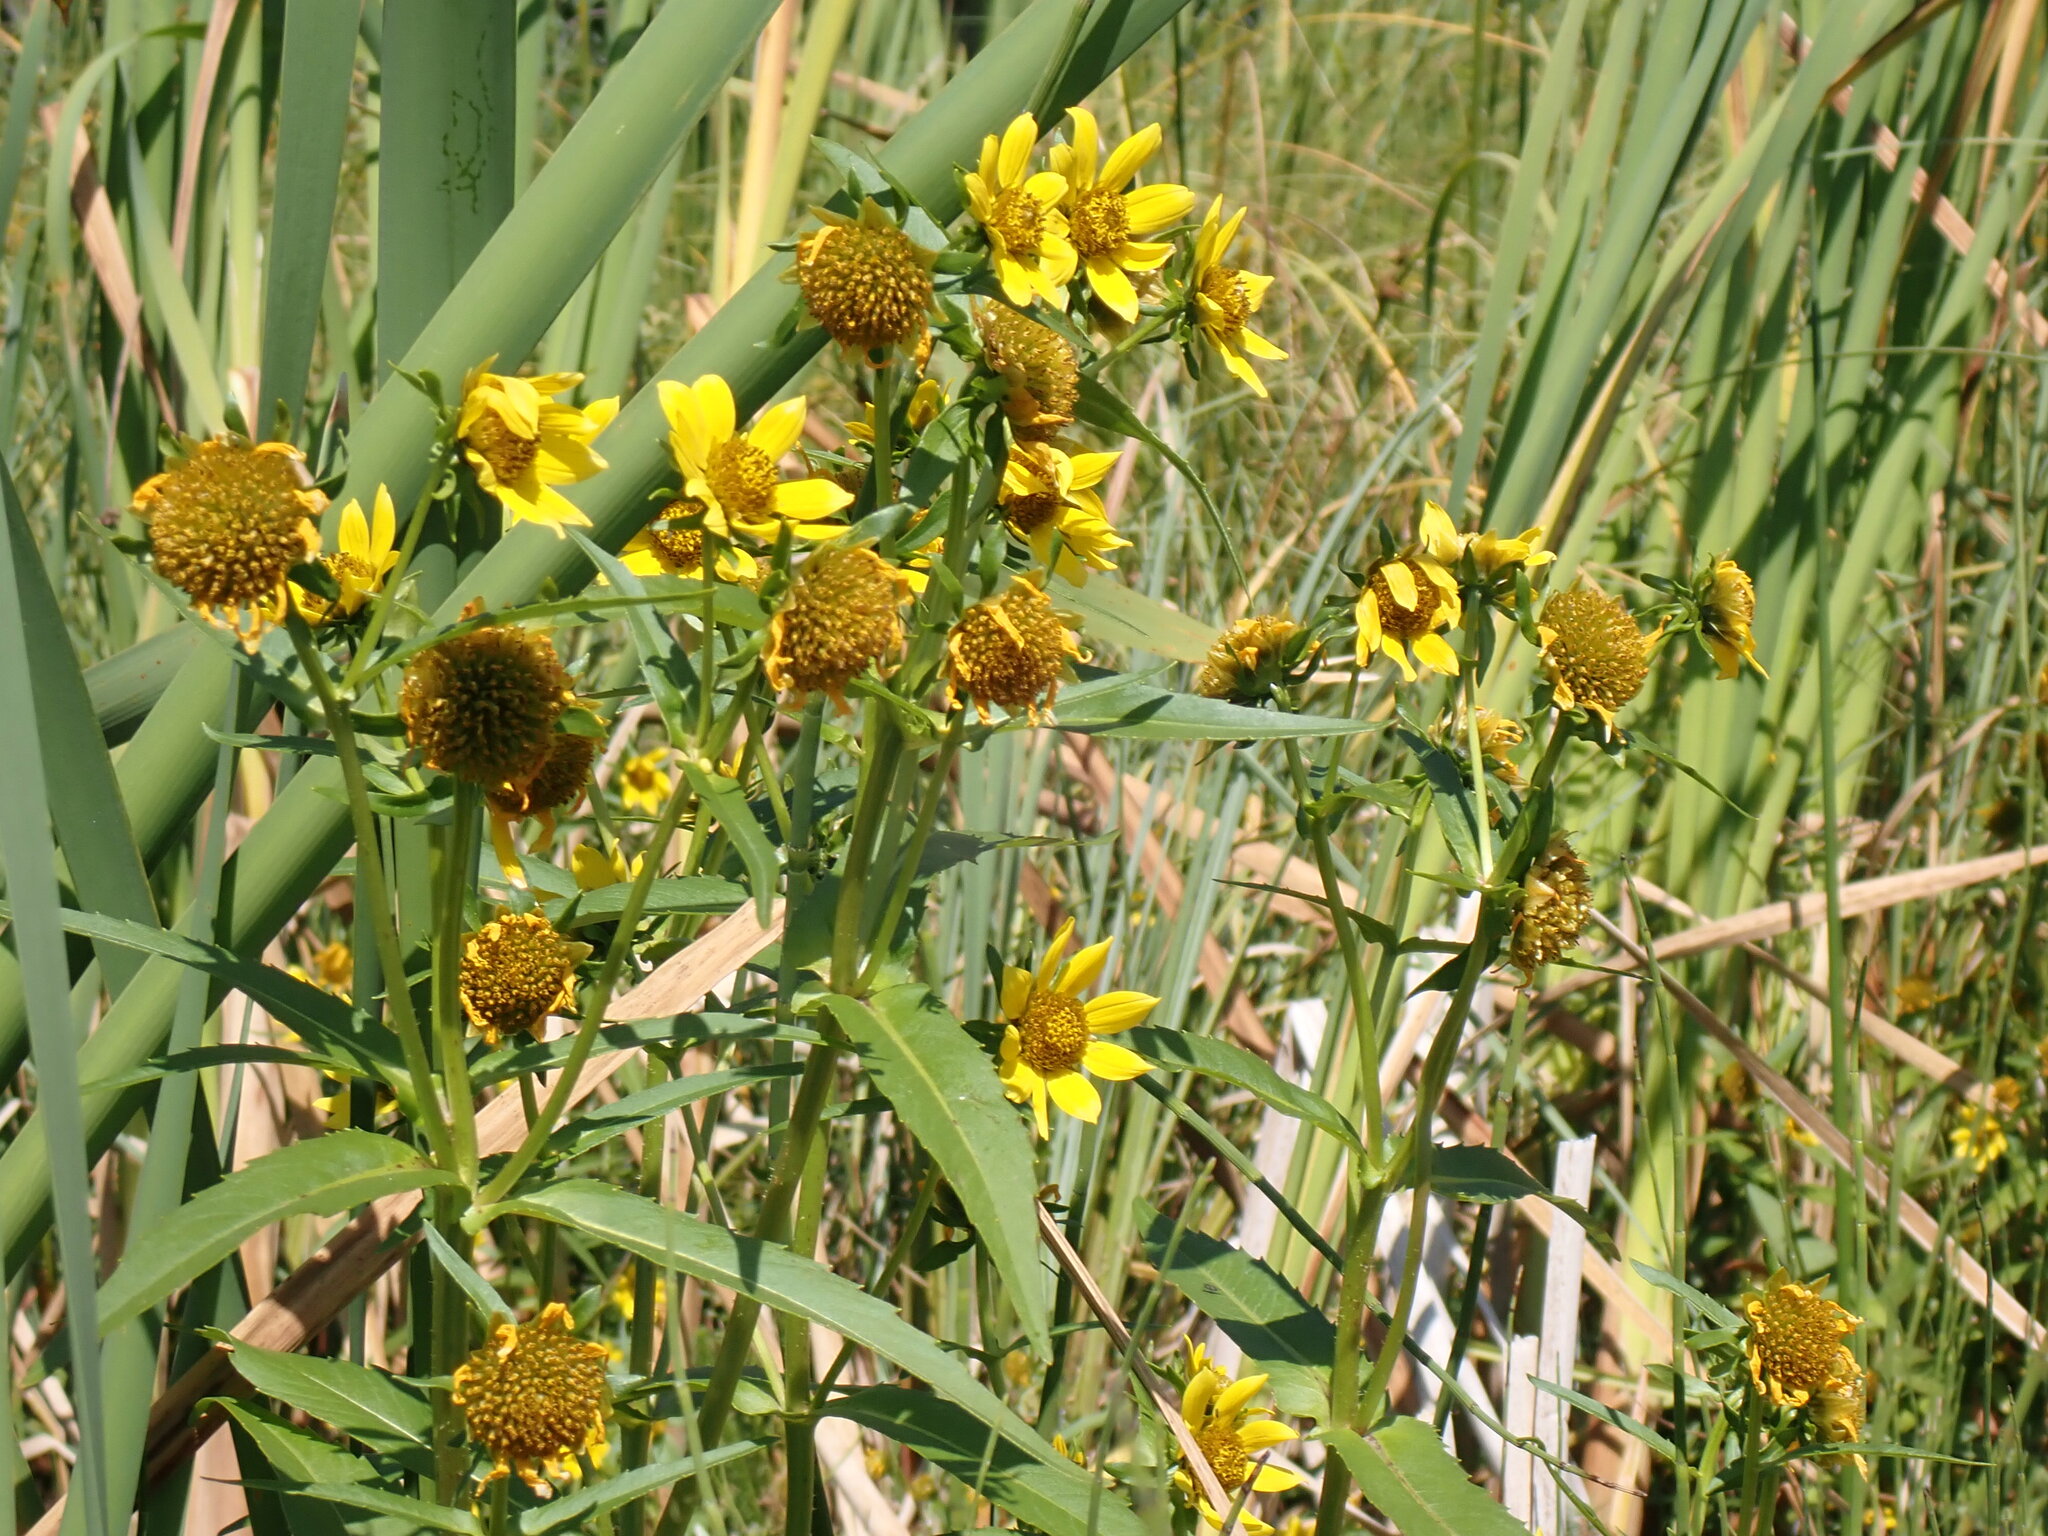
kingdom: Plantae
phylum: Tracheophyta
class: Magnoliopsida
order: Asterales
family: Asteraceae
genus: Bidens
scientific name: Bidens cernua
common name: Nodding bur-marigold
